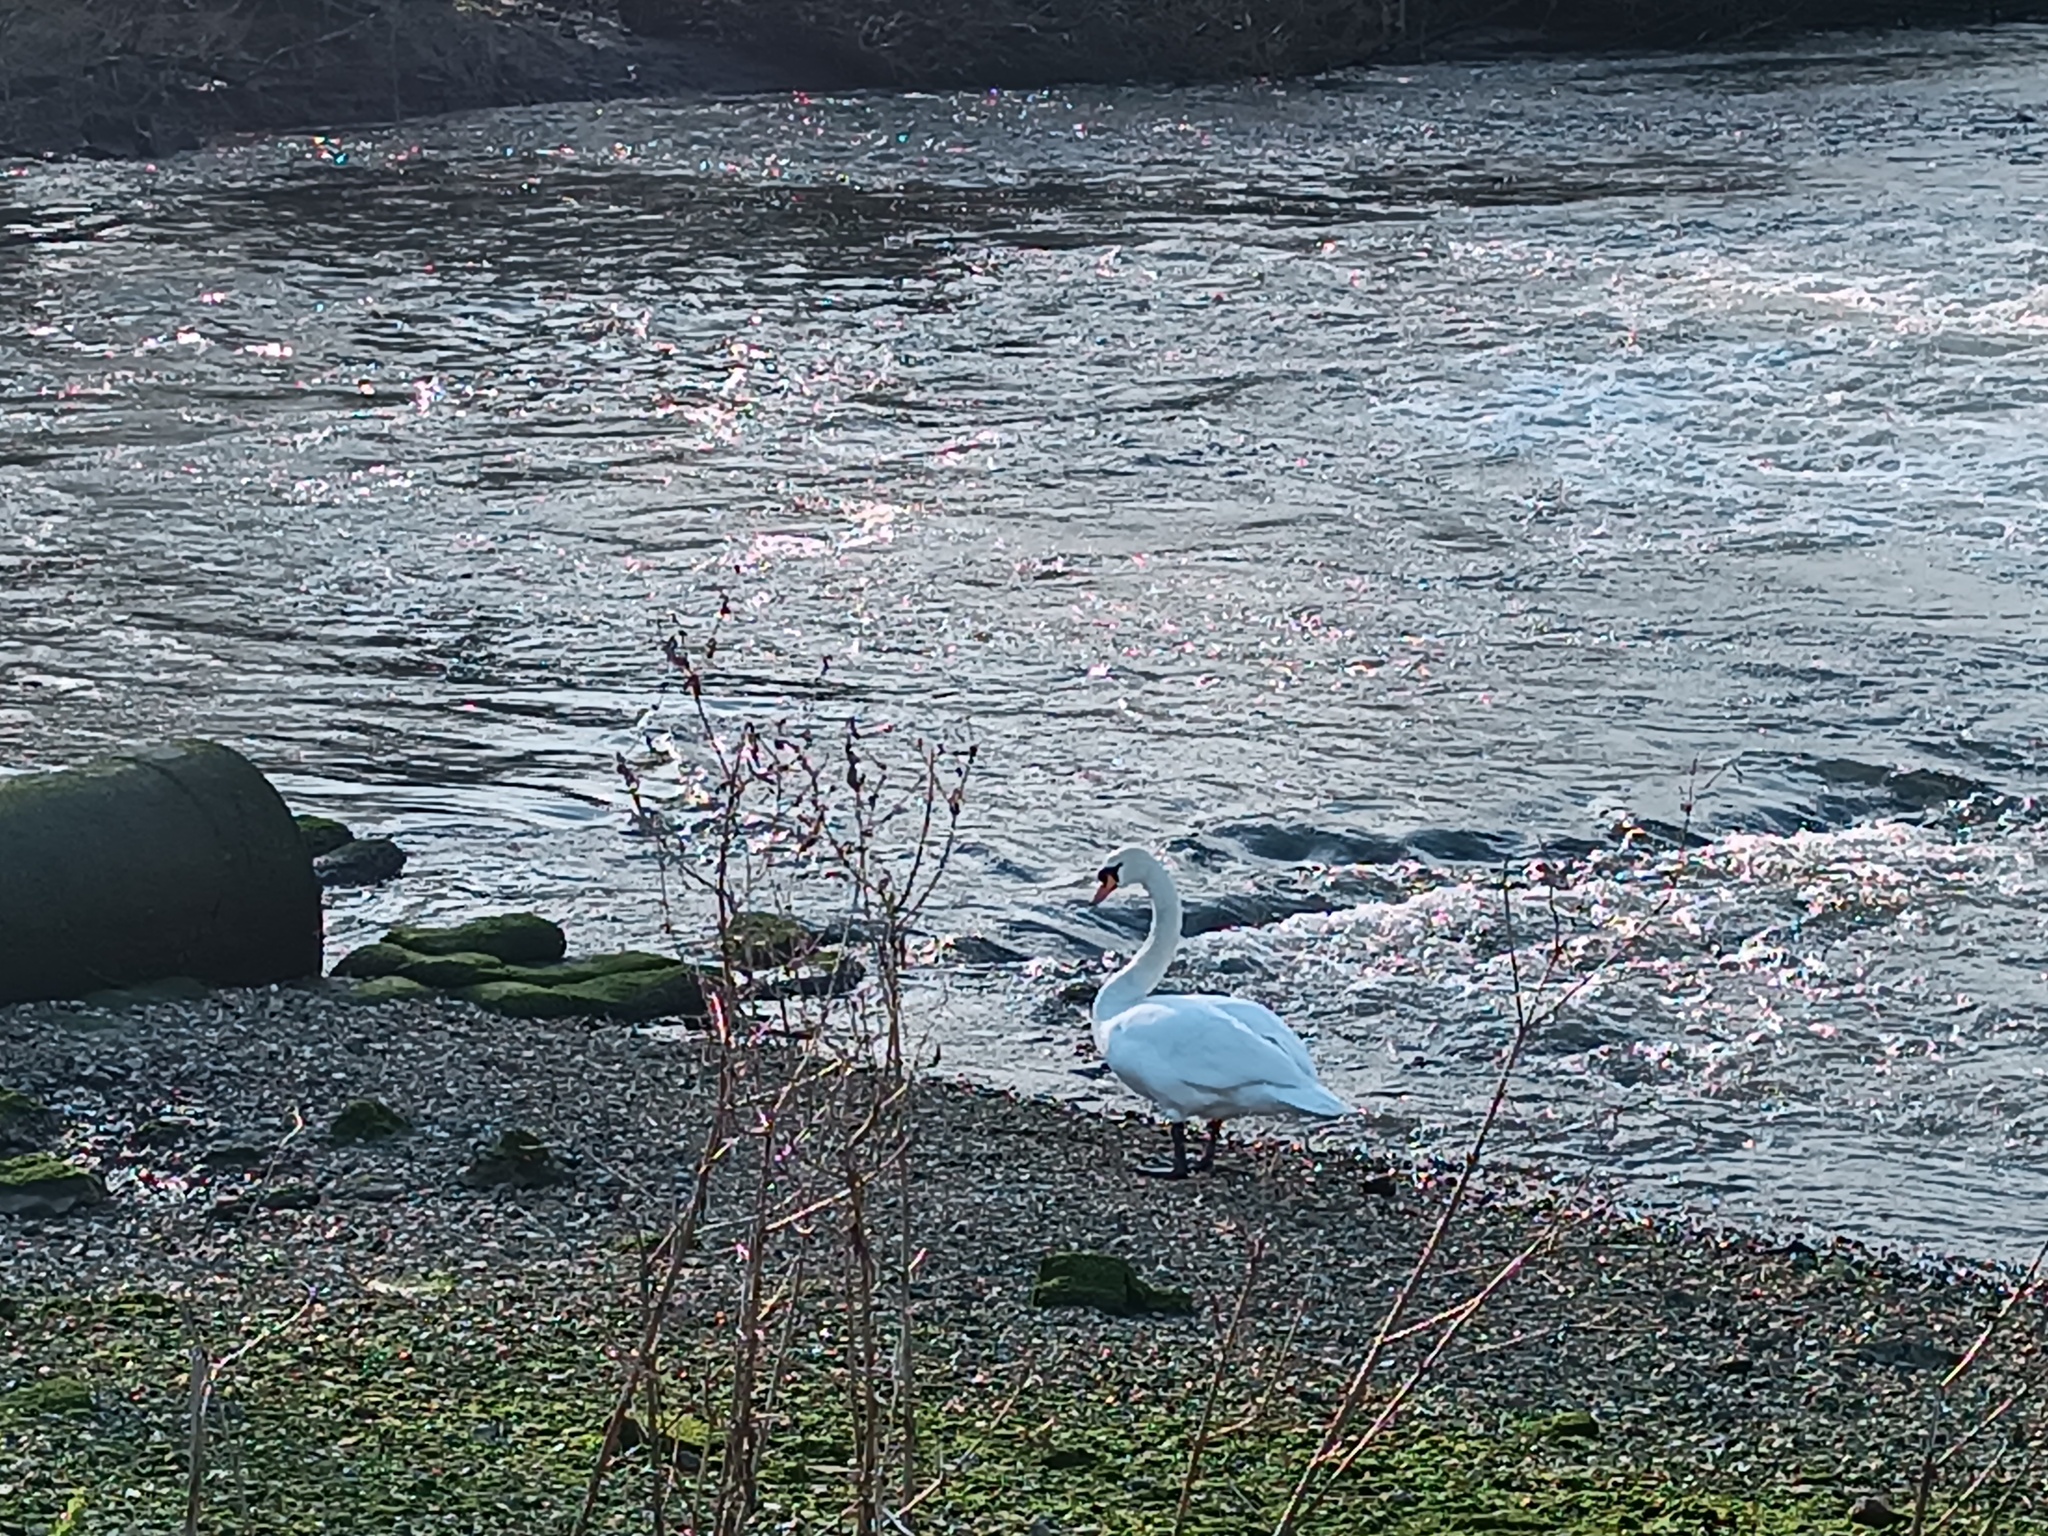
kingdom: Animalia
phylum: Chordata
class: Aves
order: Anseriformes
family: Anatidae
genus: Cygnus
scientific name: Cygnus olor
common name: Mute swan
